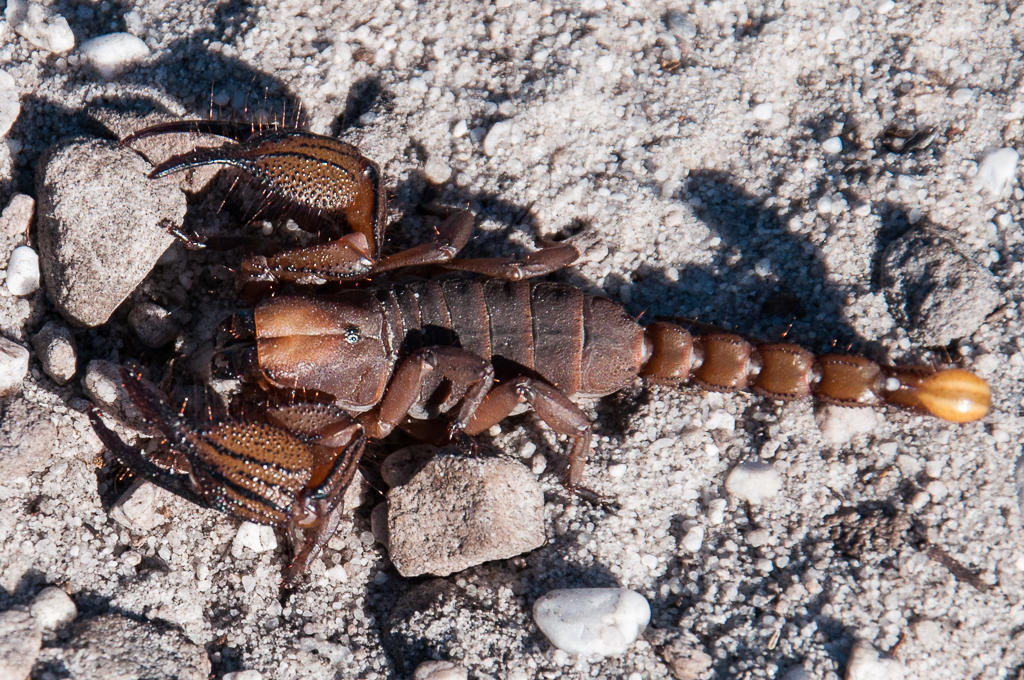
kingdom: Animalia
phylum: Arthropoda
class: Arachnida
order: Scorpiones
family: Scorpionidae
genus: Opistophthalmus
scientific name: Opistophthalmus macer
